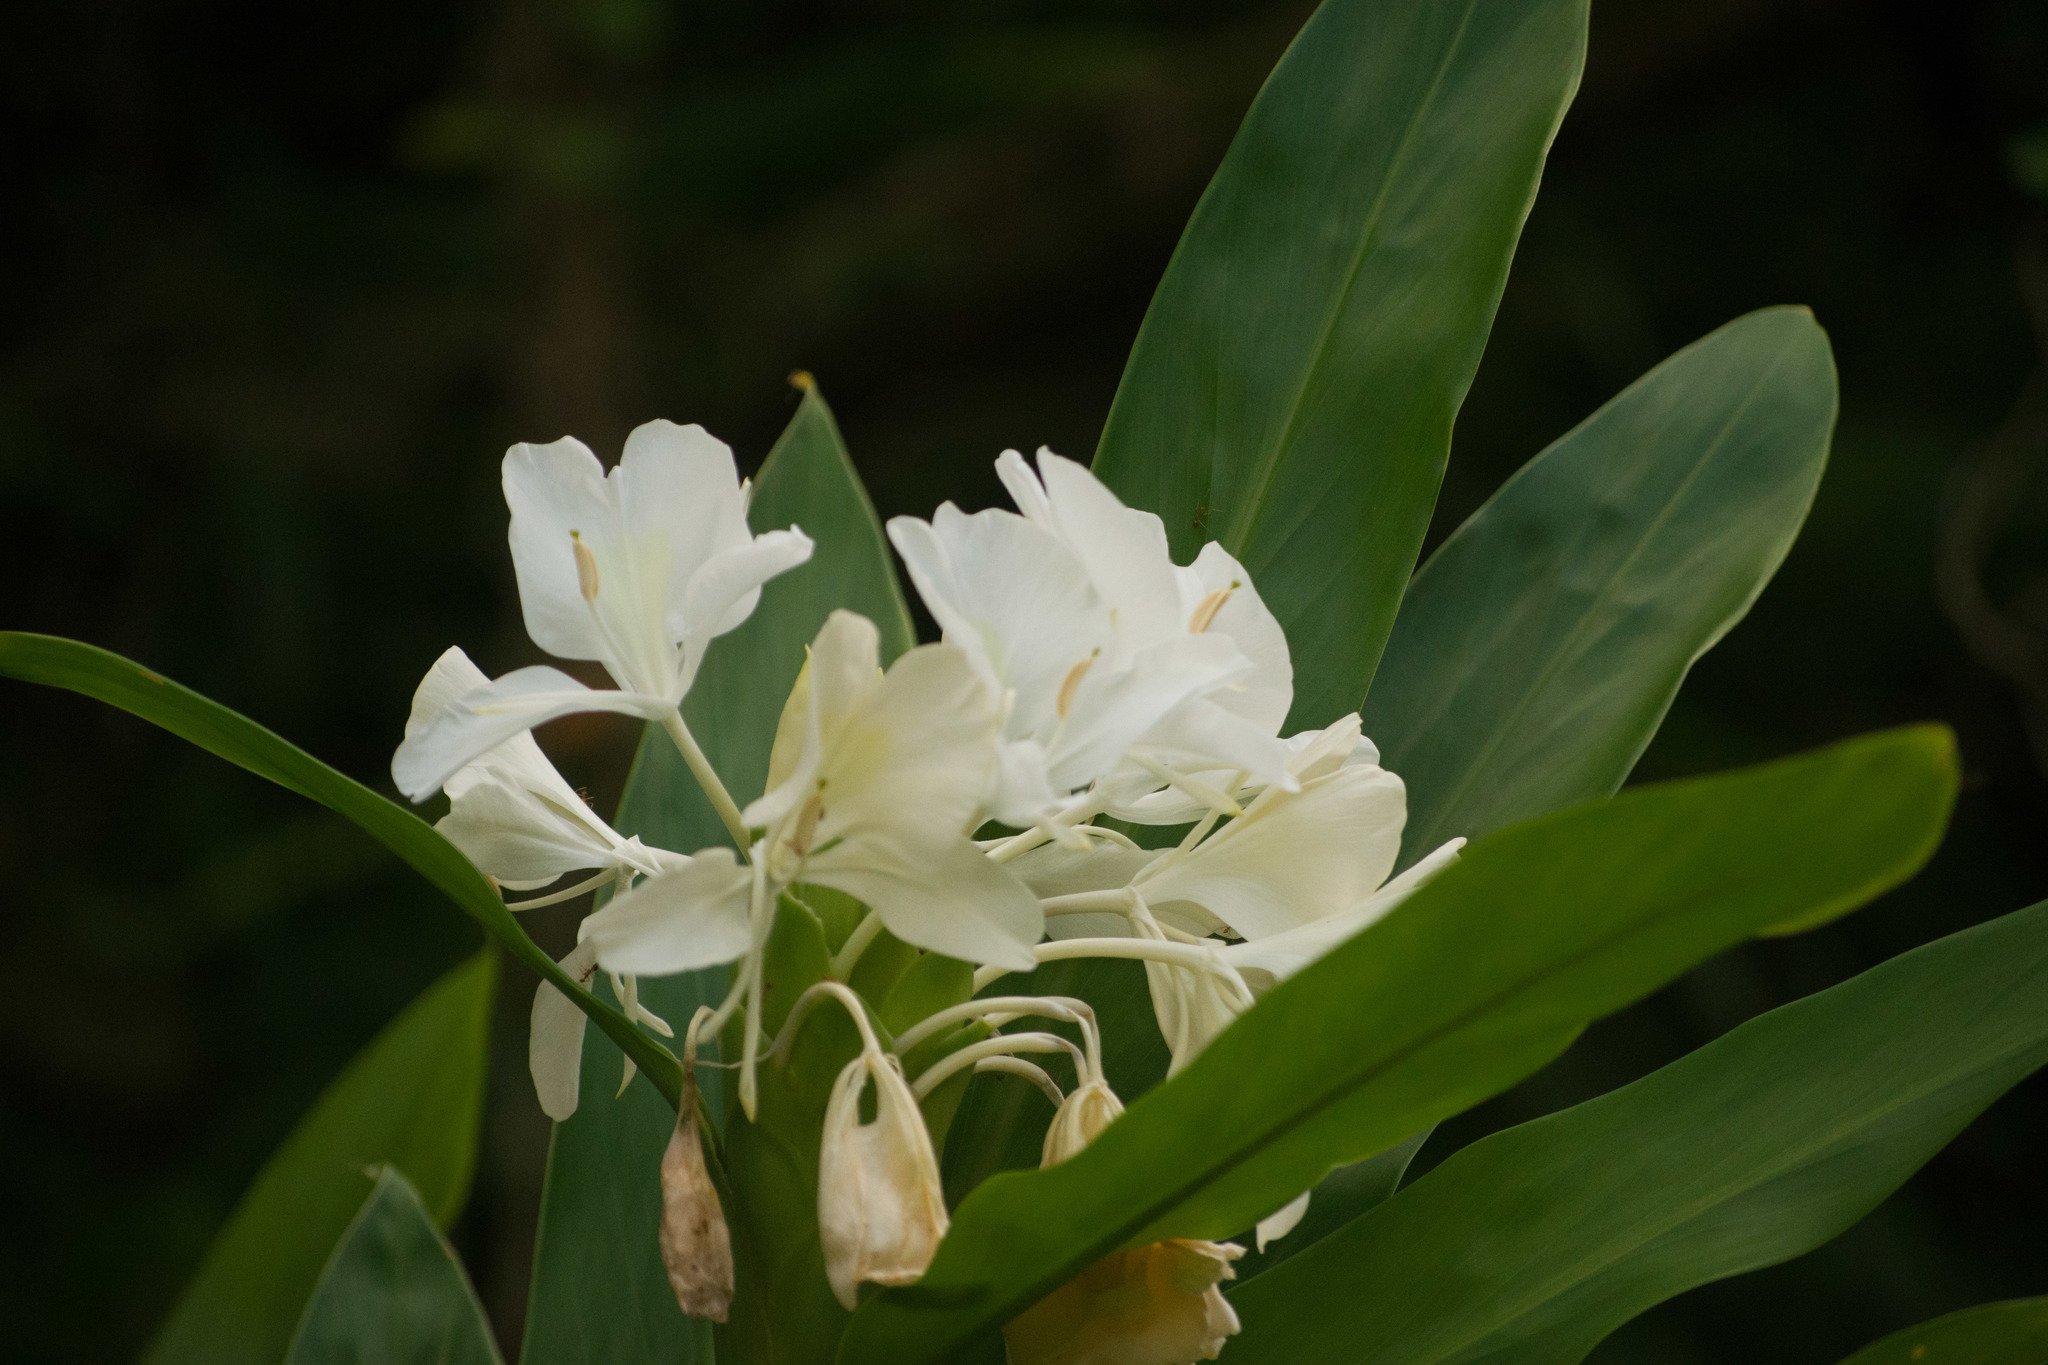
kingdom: Plantae
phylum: Tracheophyta
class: Liliopsida
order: Zingiberales
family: Zingiberaceae
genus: Hedychium
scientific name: Hedychium coronarium
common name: White garland-lily
